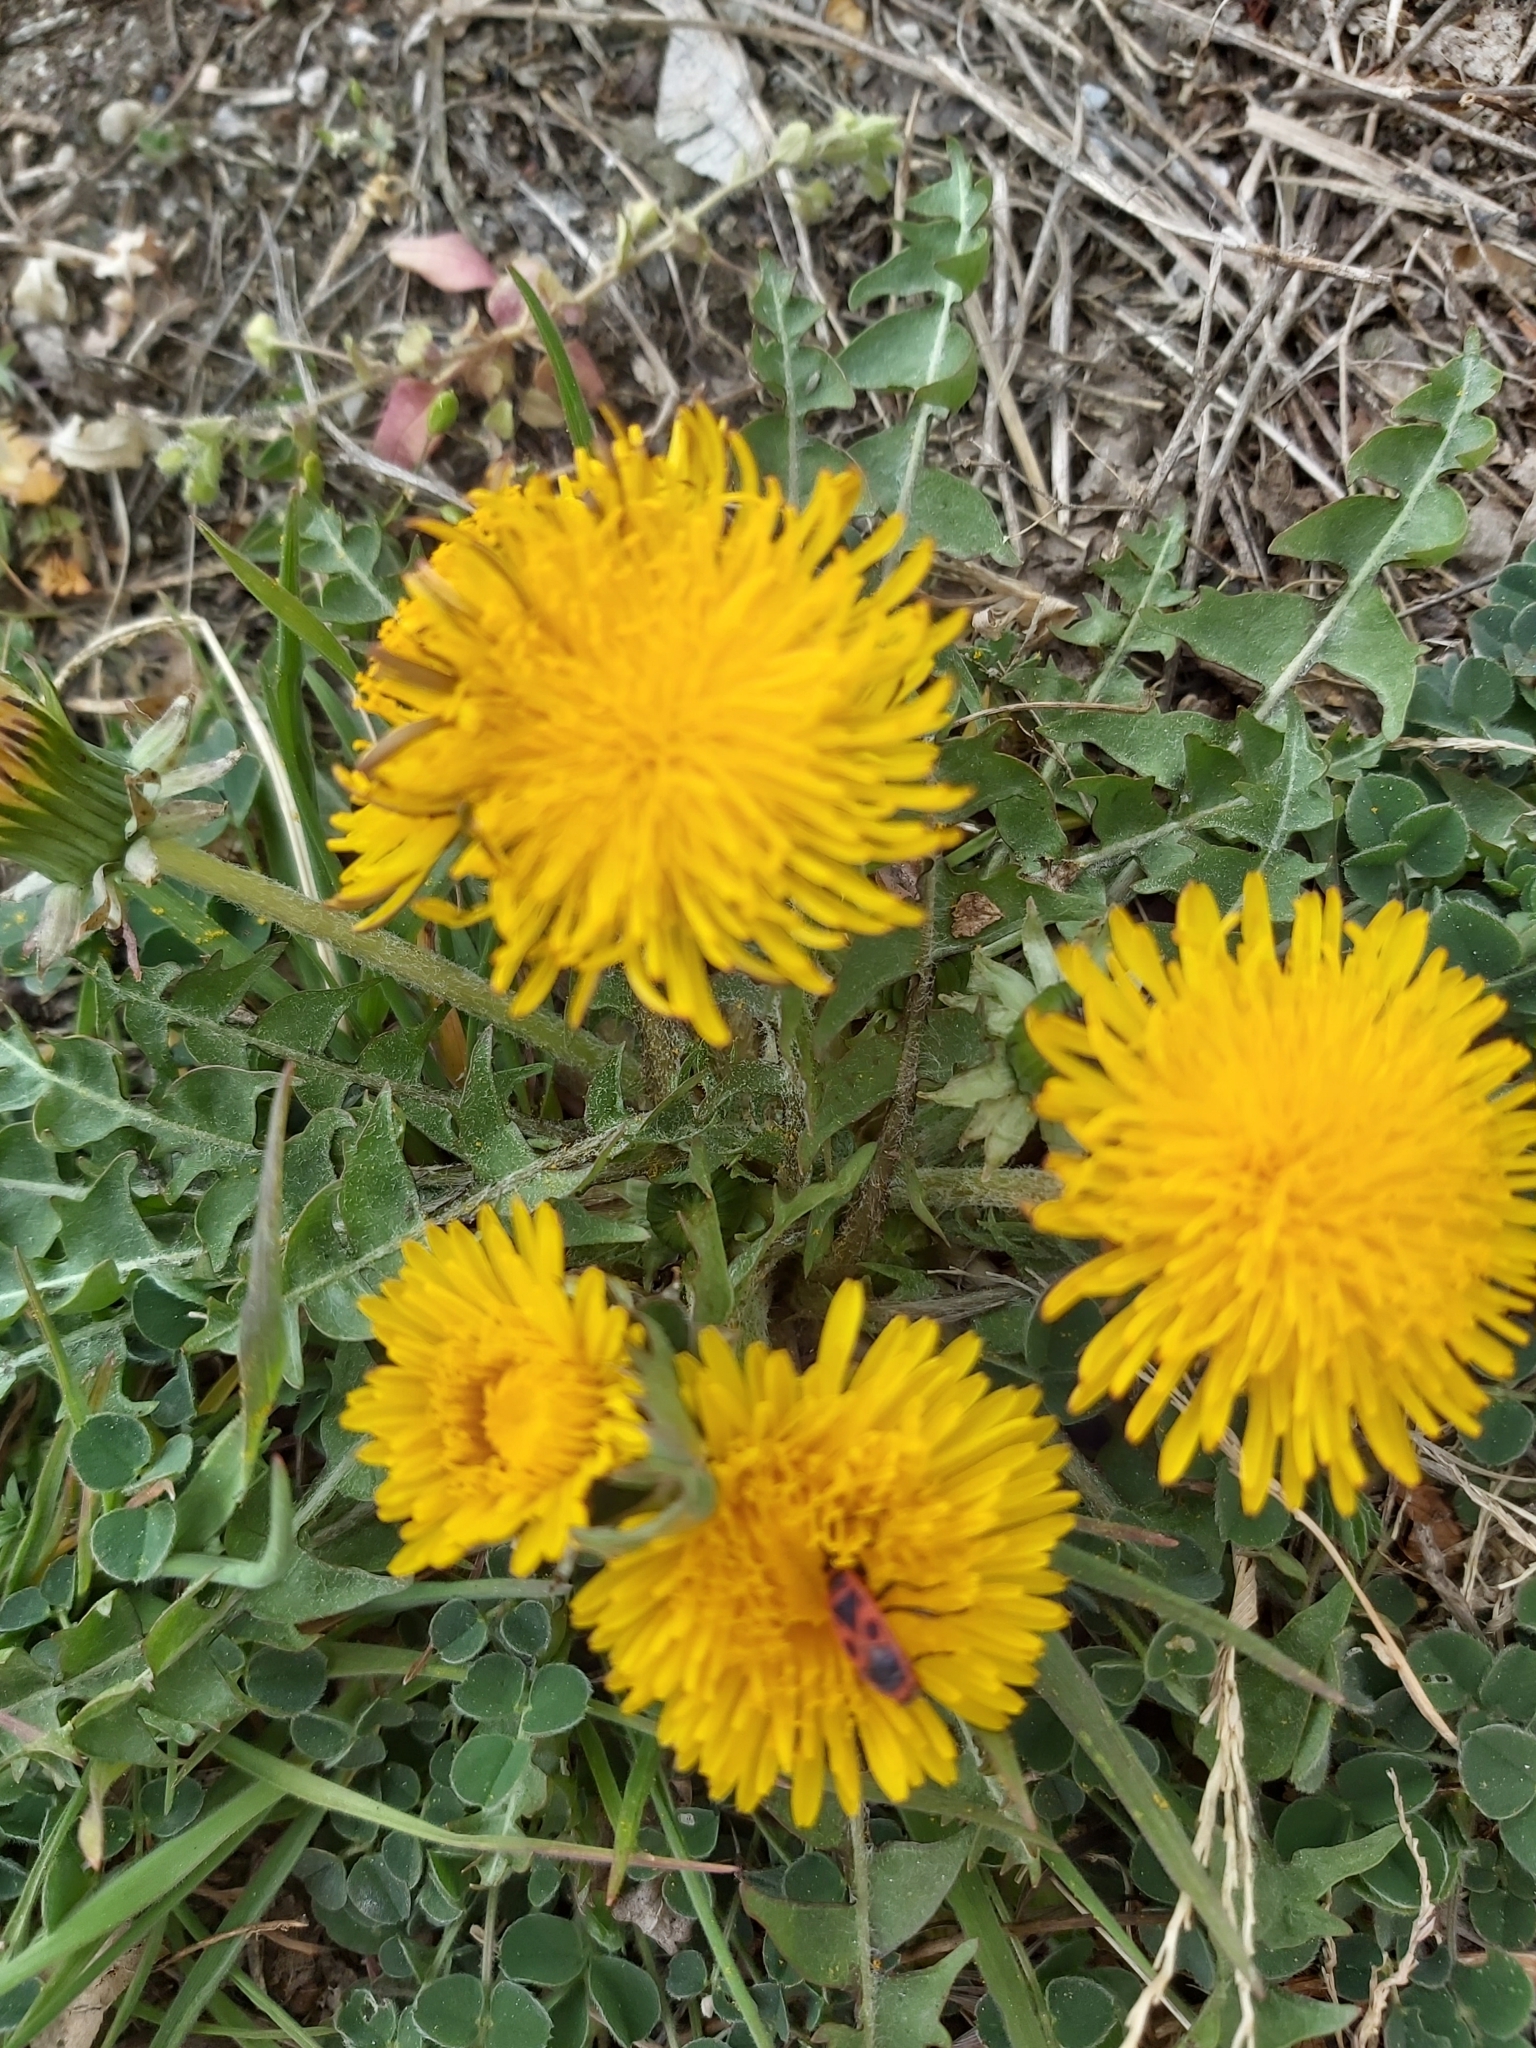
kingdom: Plantae
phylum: Tracheophyta
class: Magnoliopsida
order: Asterales
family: Asteraceae
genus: Taraxacum
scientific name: Taraxacum officinale
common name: Common dandelion
